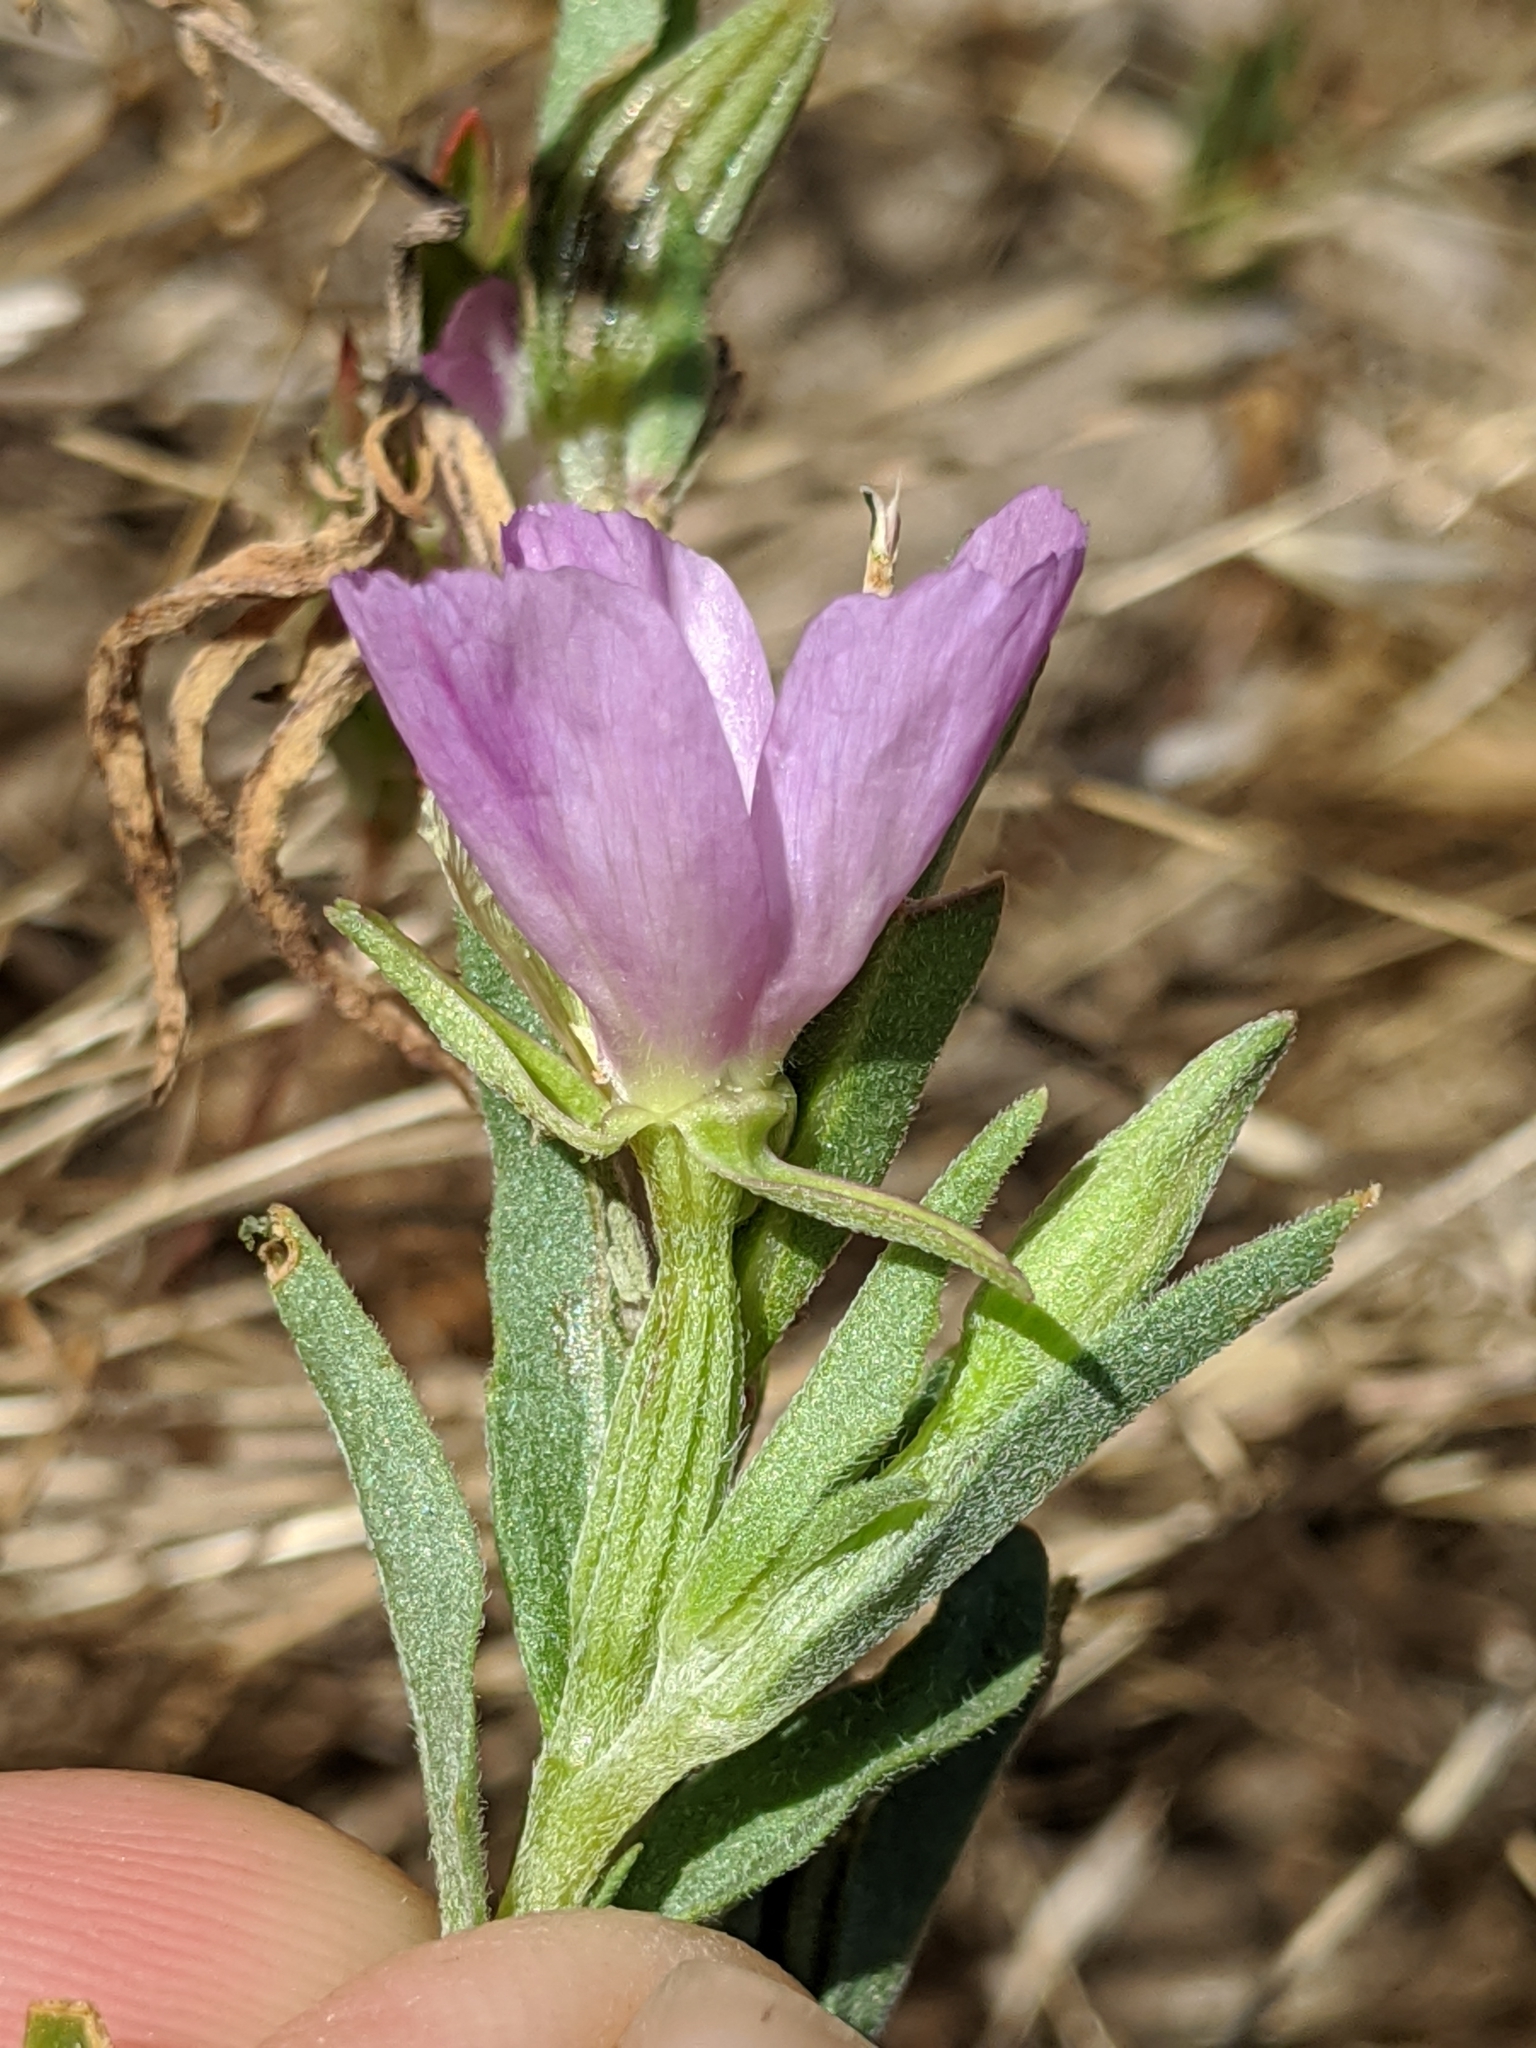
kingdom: Plantae
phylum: Tracheophyta
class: Magnoliopsida
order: Myrtales
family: Onagraceae
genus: Clarkia
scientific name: Clarkia purpurea
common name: Purple clarkia
